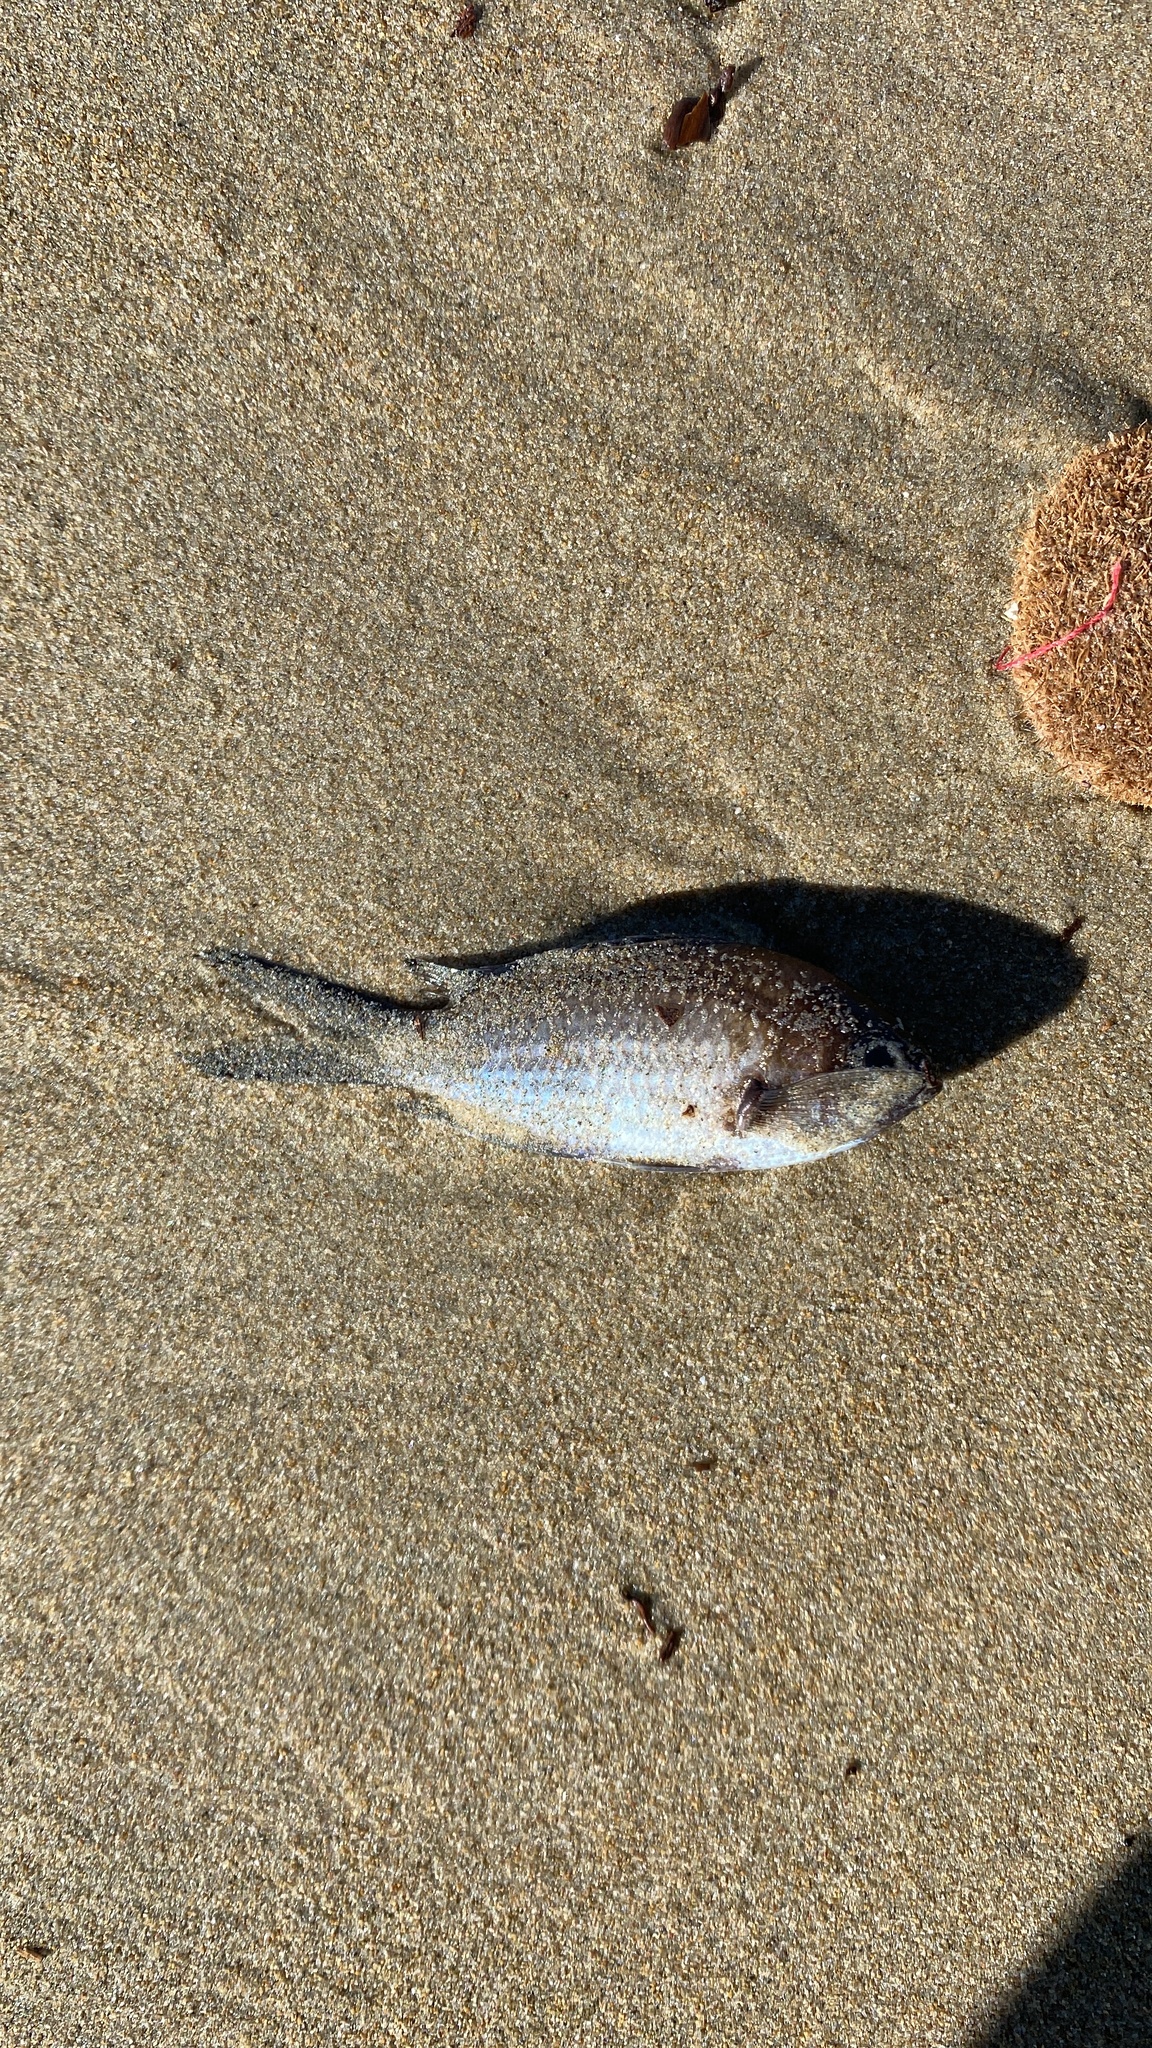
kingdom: Animalia
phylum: Chordata
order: Perciformes
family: Pomacentridae
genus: Chromis
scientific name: Chromis chromis
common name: Damselfish
